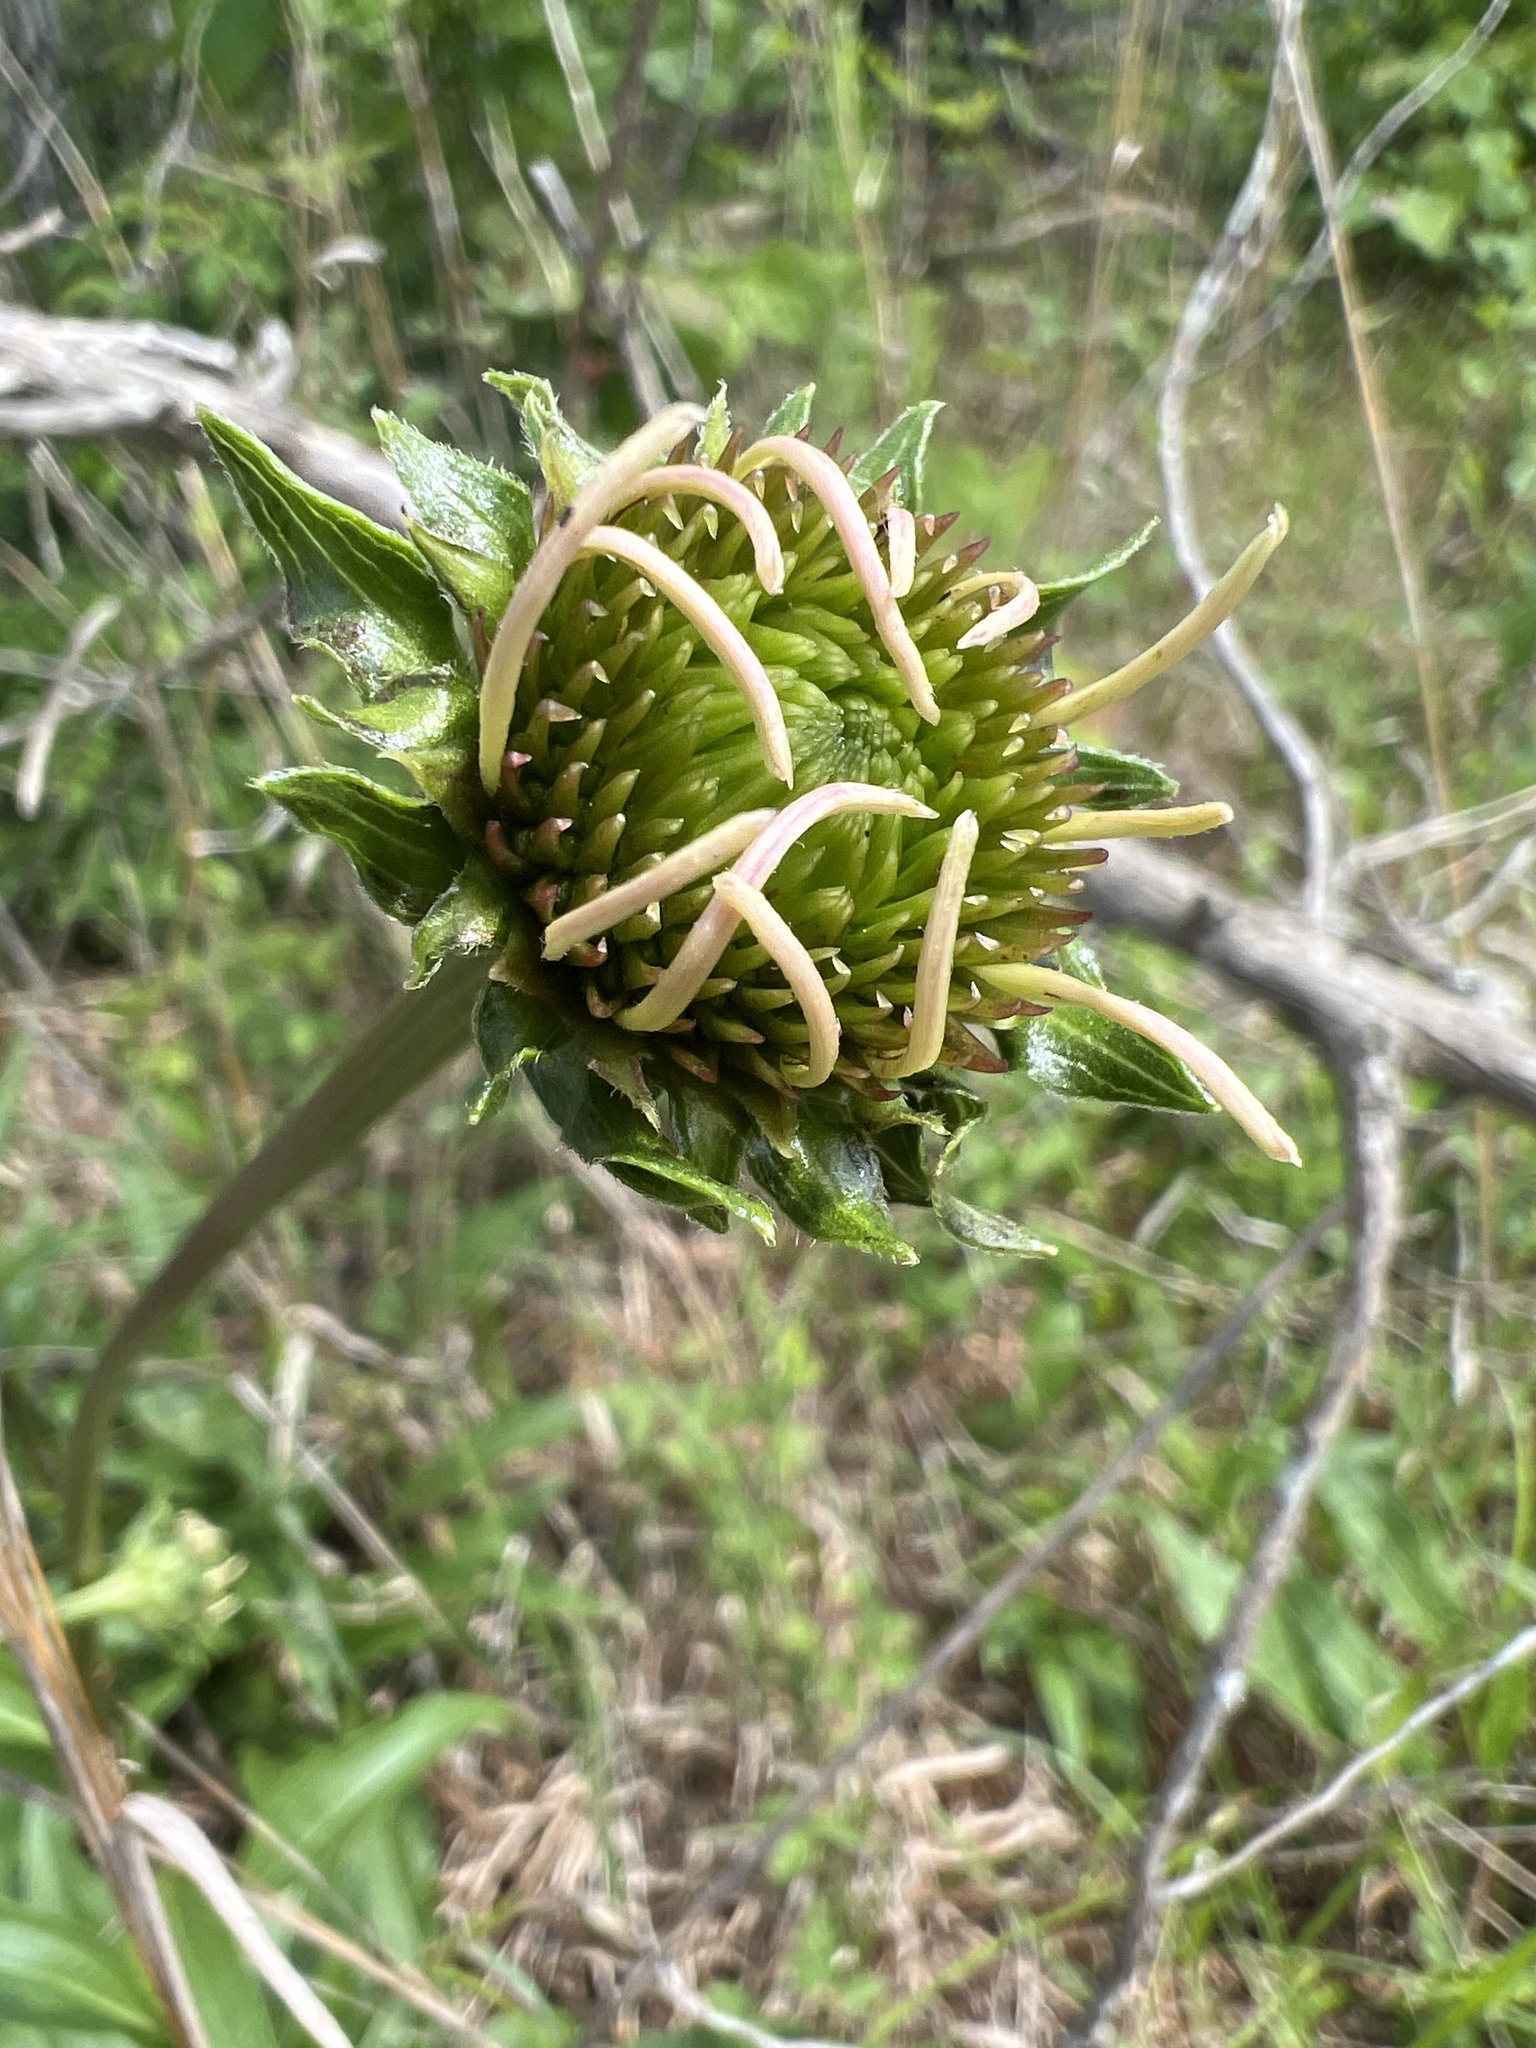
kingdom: Plantae
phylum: Tracheophyta
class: Magnoliopsida
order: Asterales
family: Asteraceae
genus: Echinacea
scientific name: Echinacea laevigata
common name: Smooth coneflower
